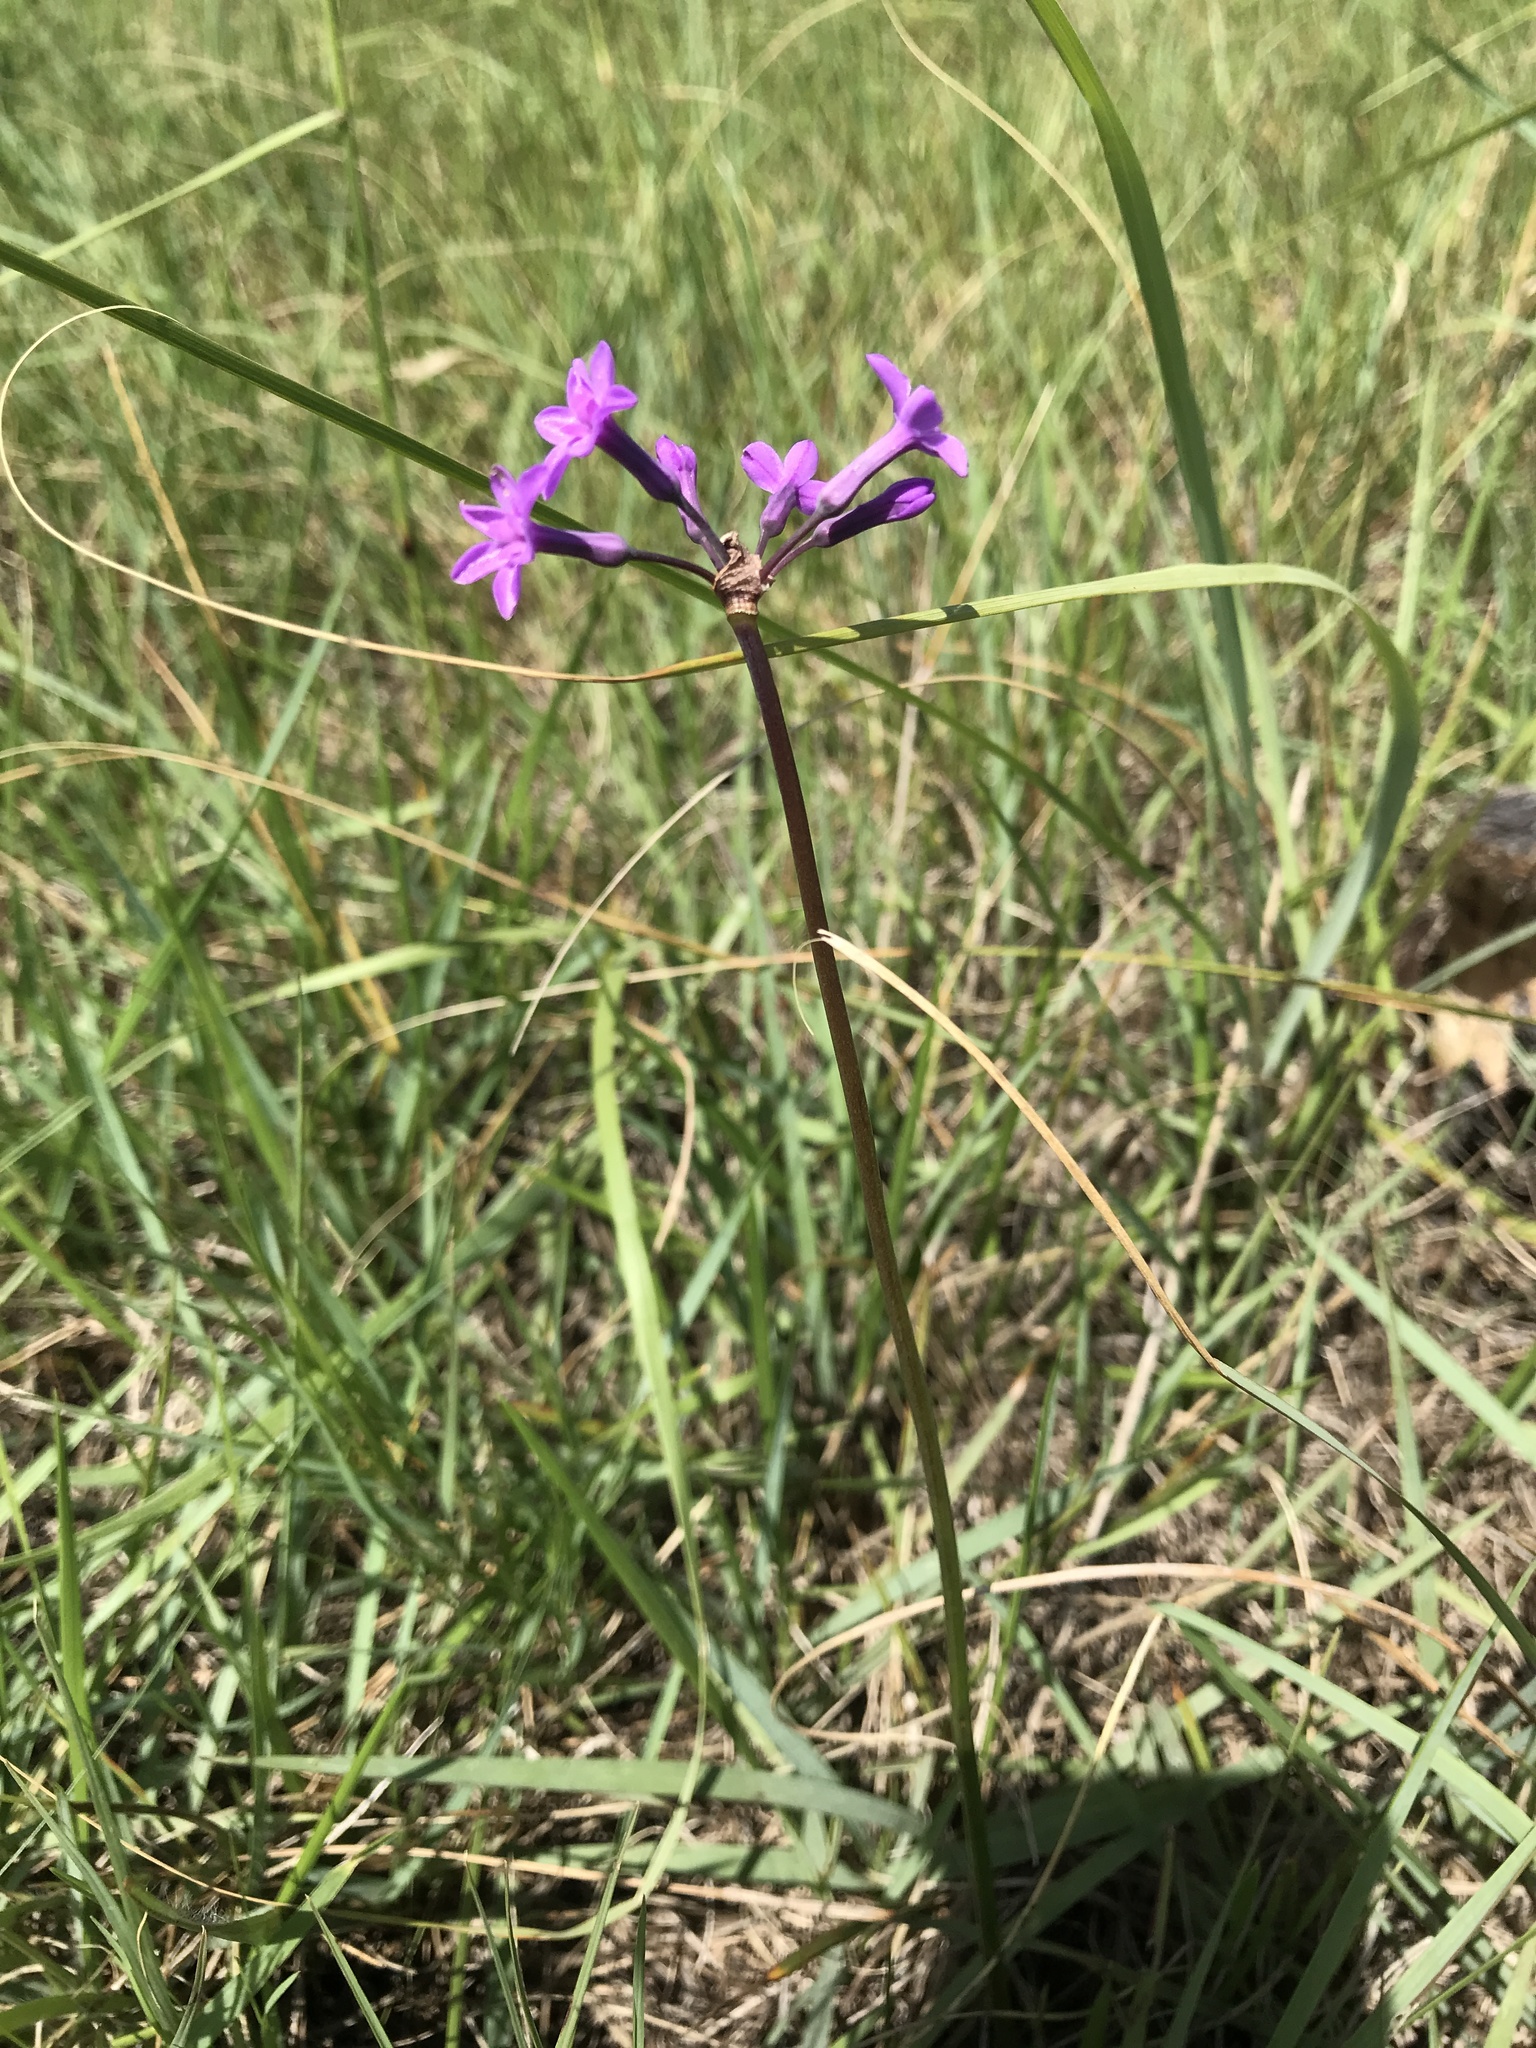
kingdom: Plantae
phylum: Tracheophyta
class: Liliopsida
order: Asparagales
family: Amaryllidaceae
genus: Tulbaghia
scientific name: Tulbaghia violacea
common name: Society garlic
